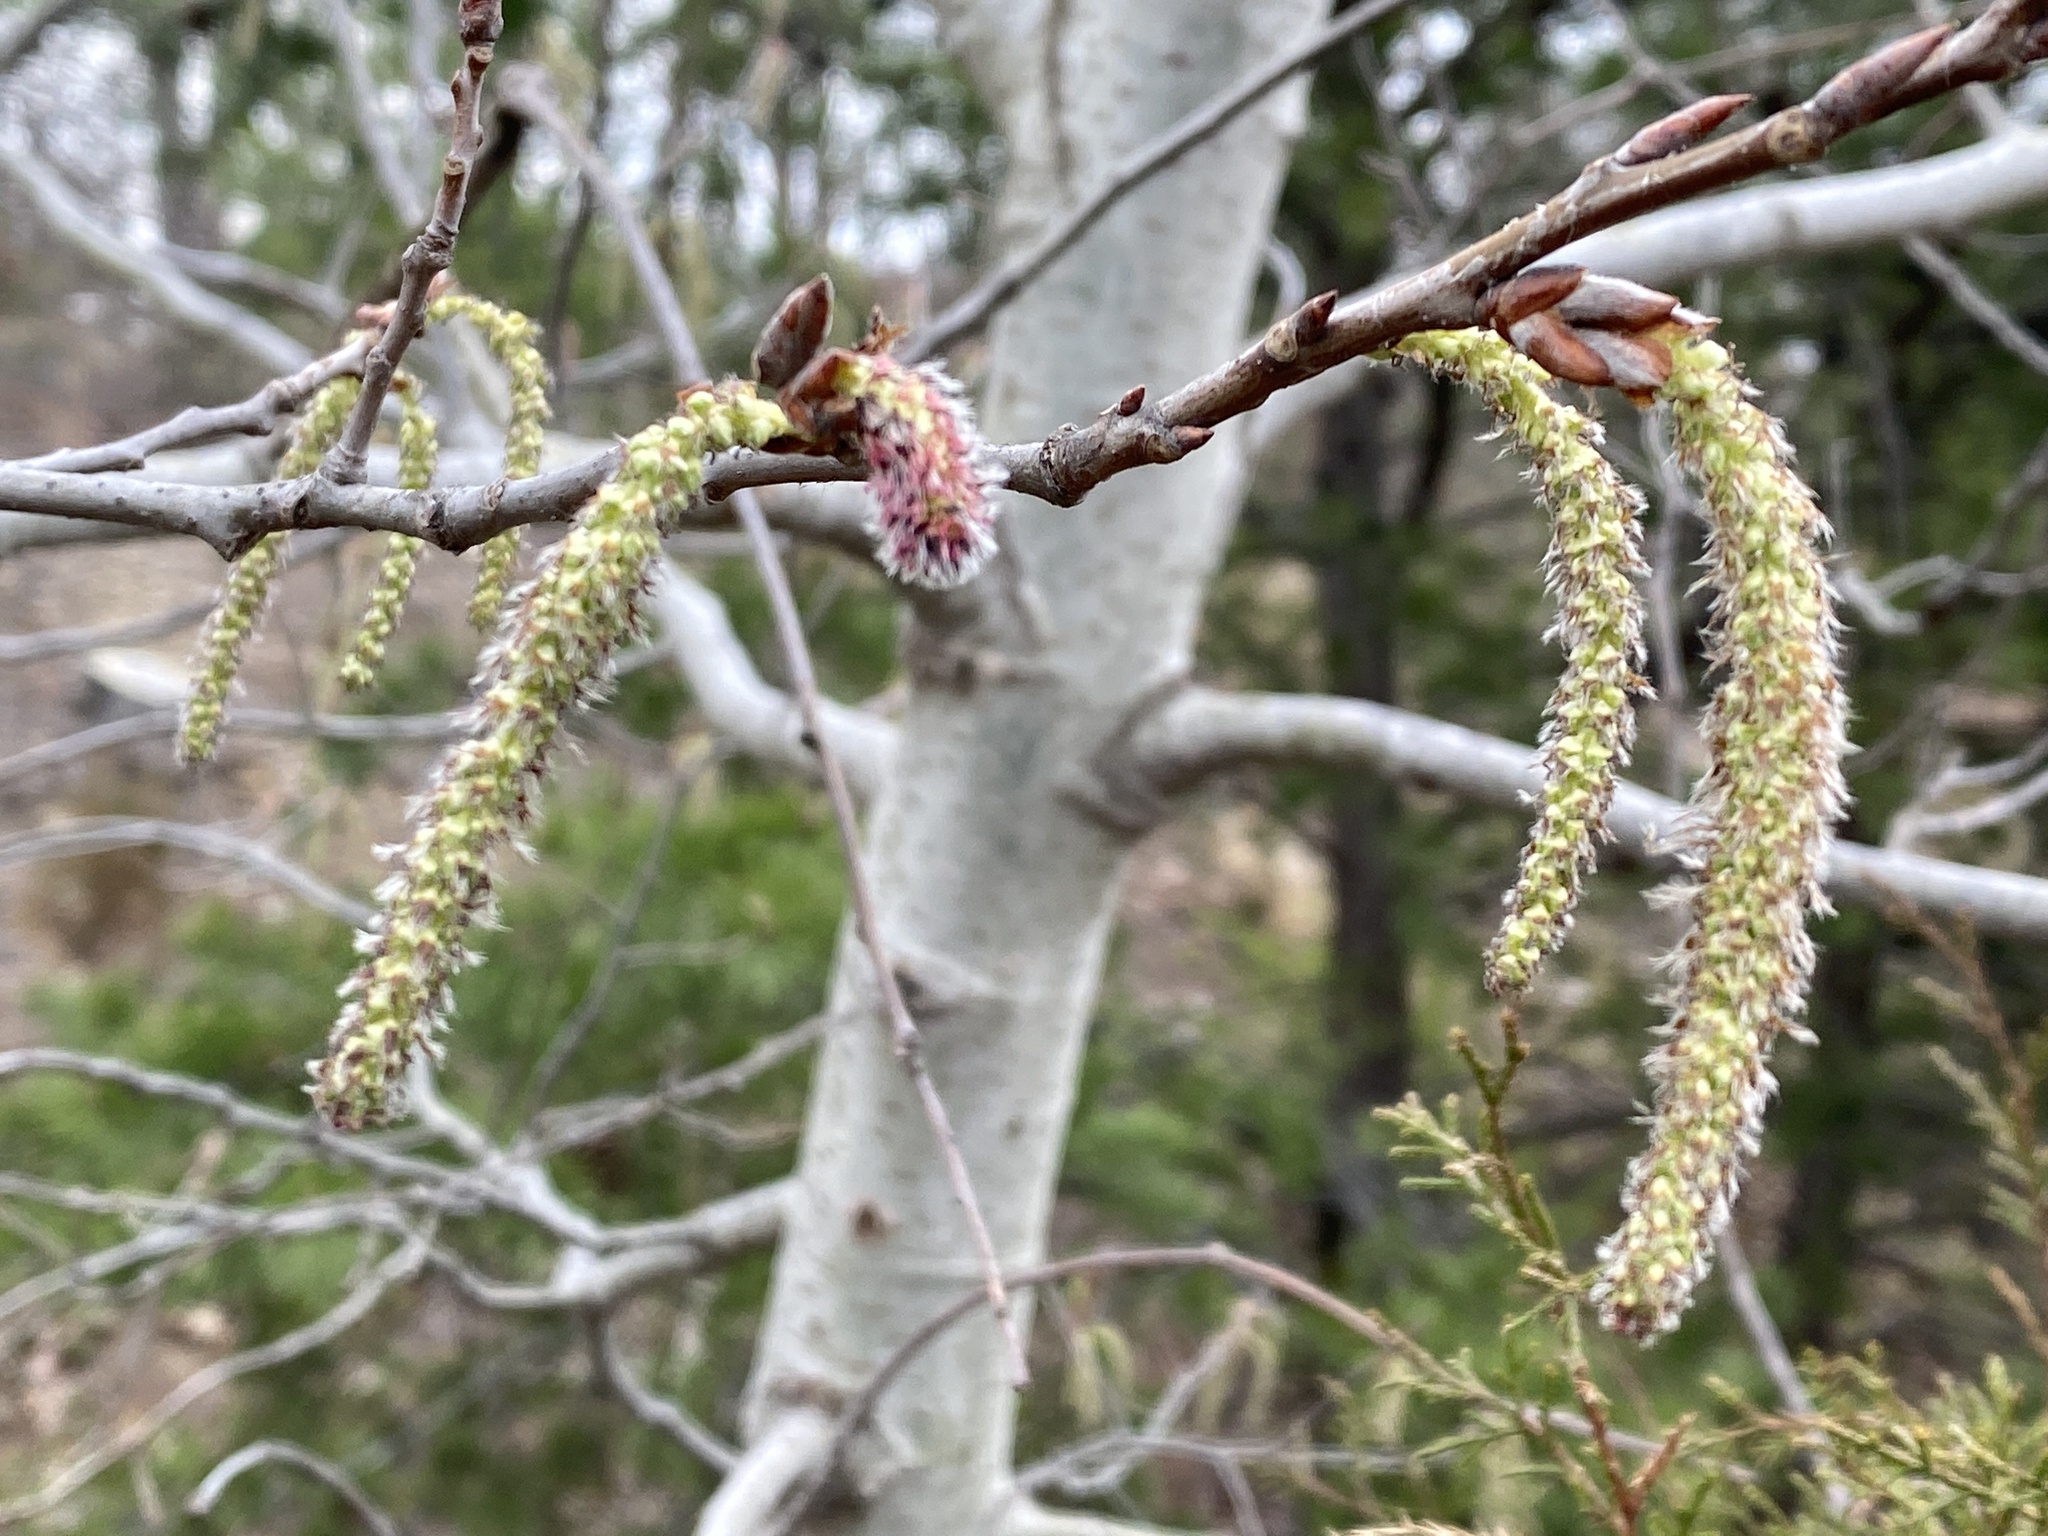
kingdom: Plantae
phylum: Tracheophyta
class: Magnoliopsida
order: Malpighiales
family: Salicaceae
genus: Populus
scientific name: Populus grandidentata
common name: Bigtooth aspen
